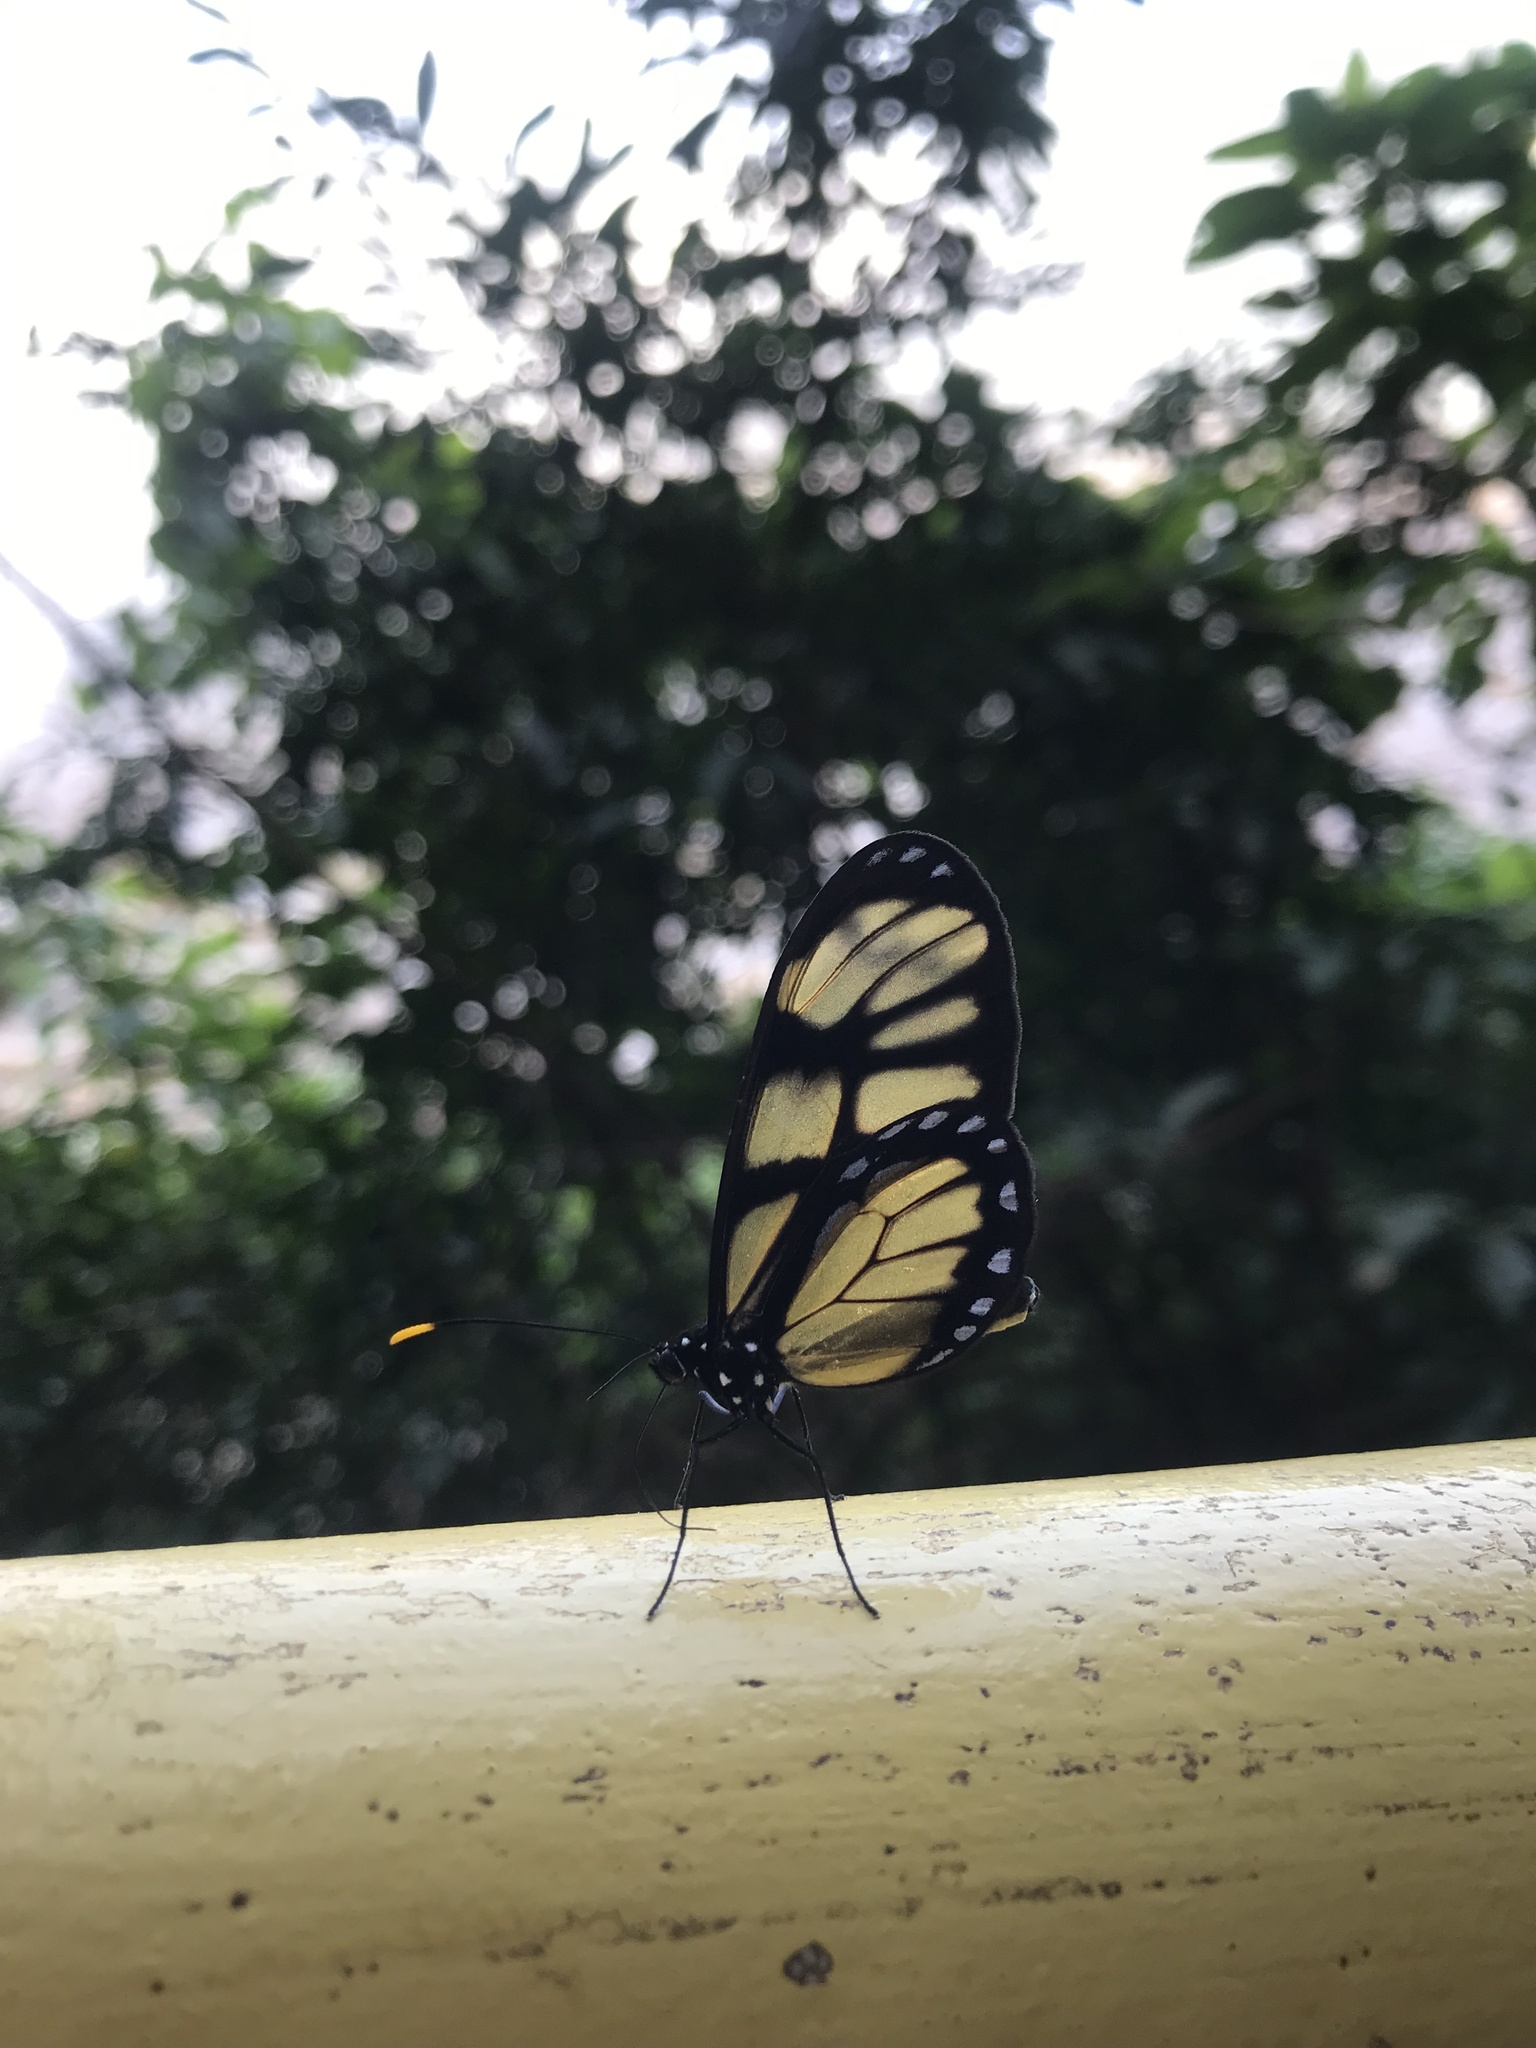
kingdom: Animalia
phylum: Arthropoda
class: Insecta
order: Lepidoptera
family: Nymphalidae
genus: Dircenna
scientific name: Dircenna dero
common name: Dero clearwing
